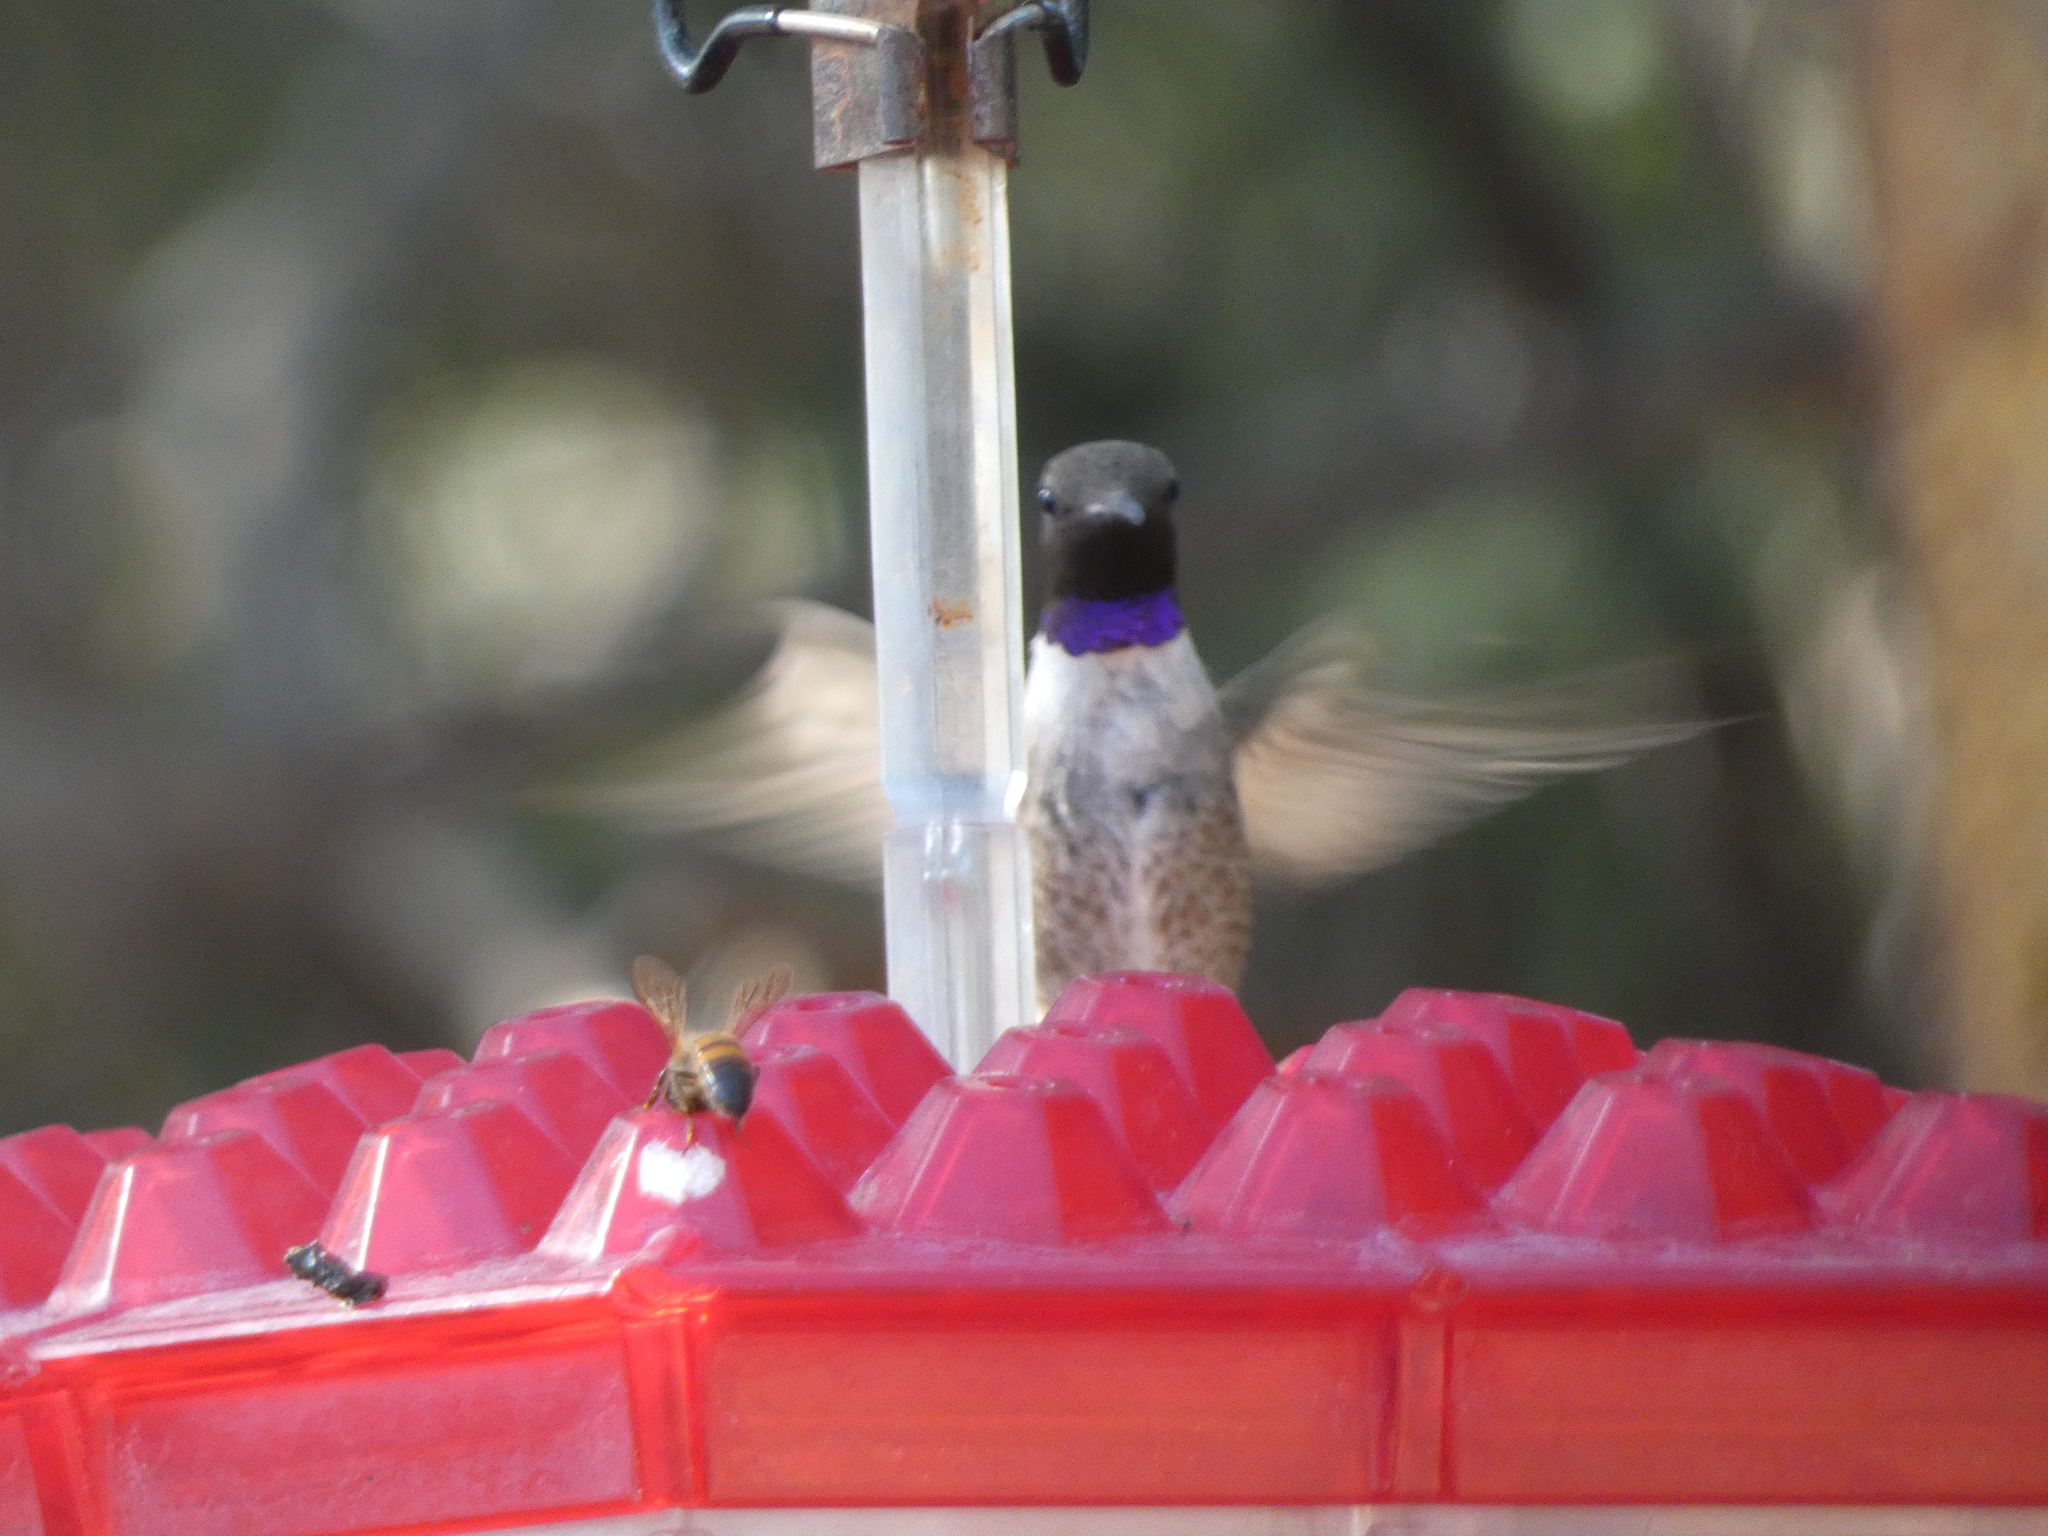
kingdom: Animalia
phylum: Chordata
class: Aves
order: Apodiformes
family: Trochilidae
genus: Archilochus
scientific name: Archilochus alexandri
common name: Black-chinned hummingbird
